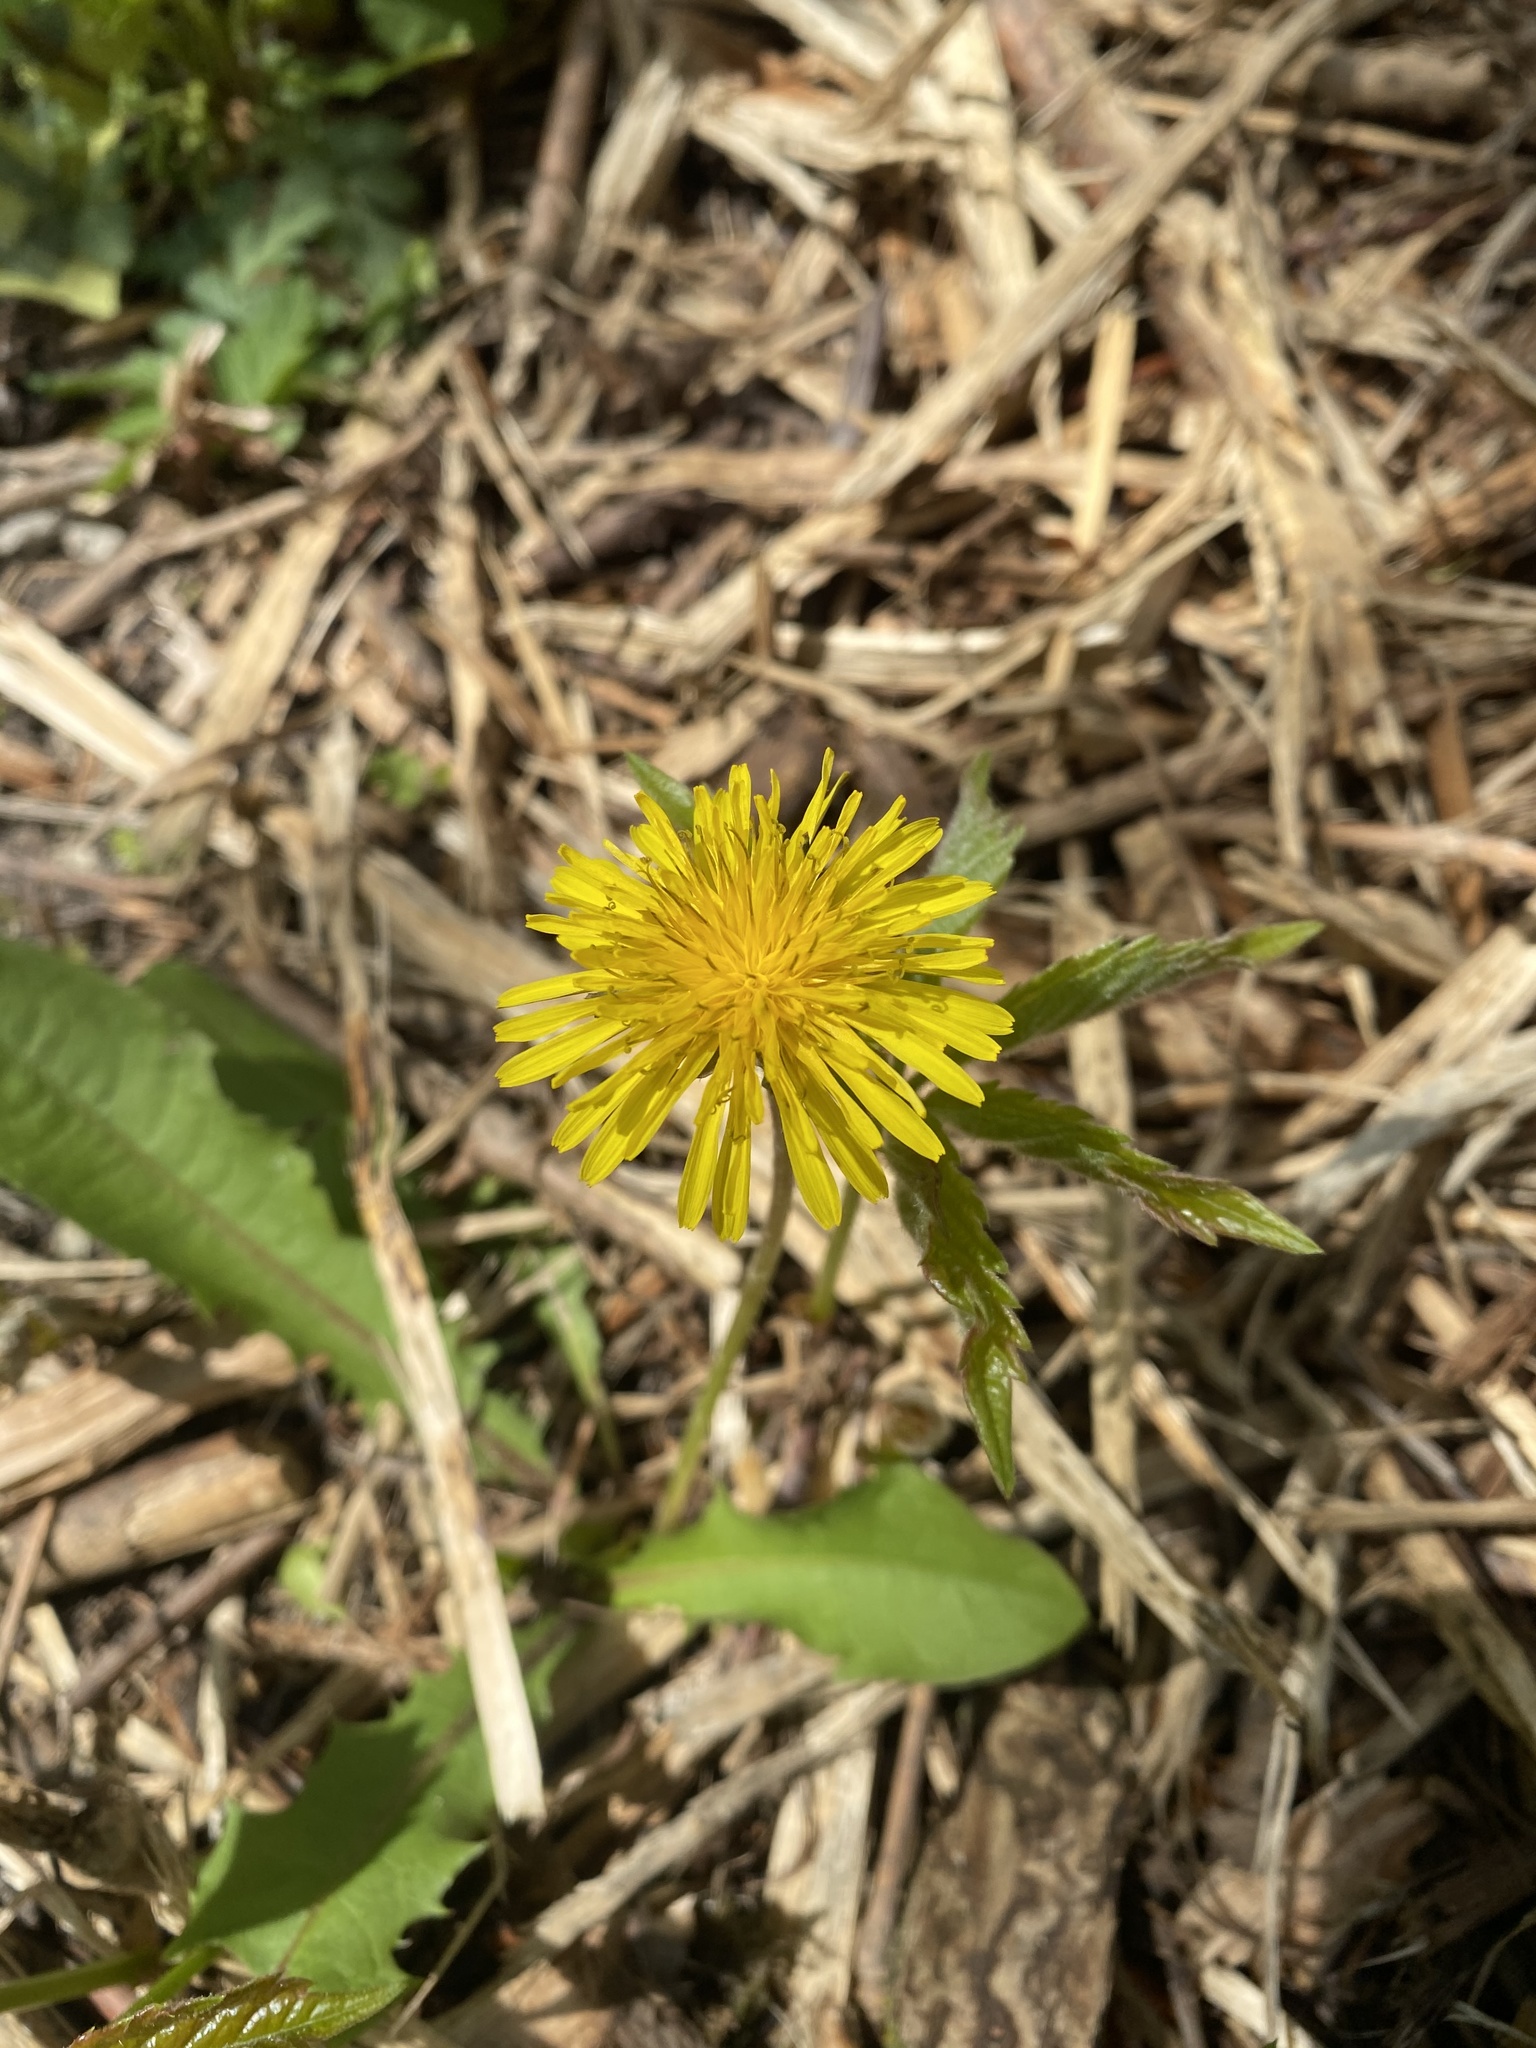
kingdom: Plantae
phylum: Tracheophyta
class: Magnoliopsida
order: Asterales
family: Asteraceae
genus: Taraxacum
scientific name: Taraxacum officinale
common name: Common dandelion
